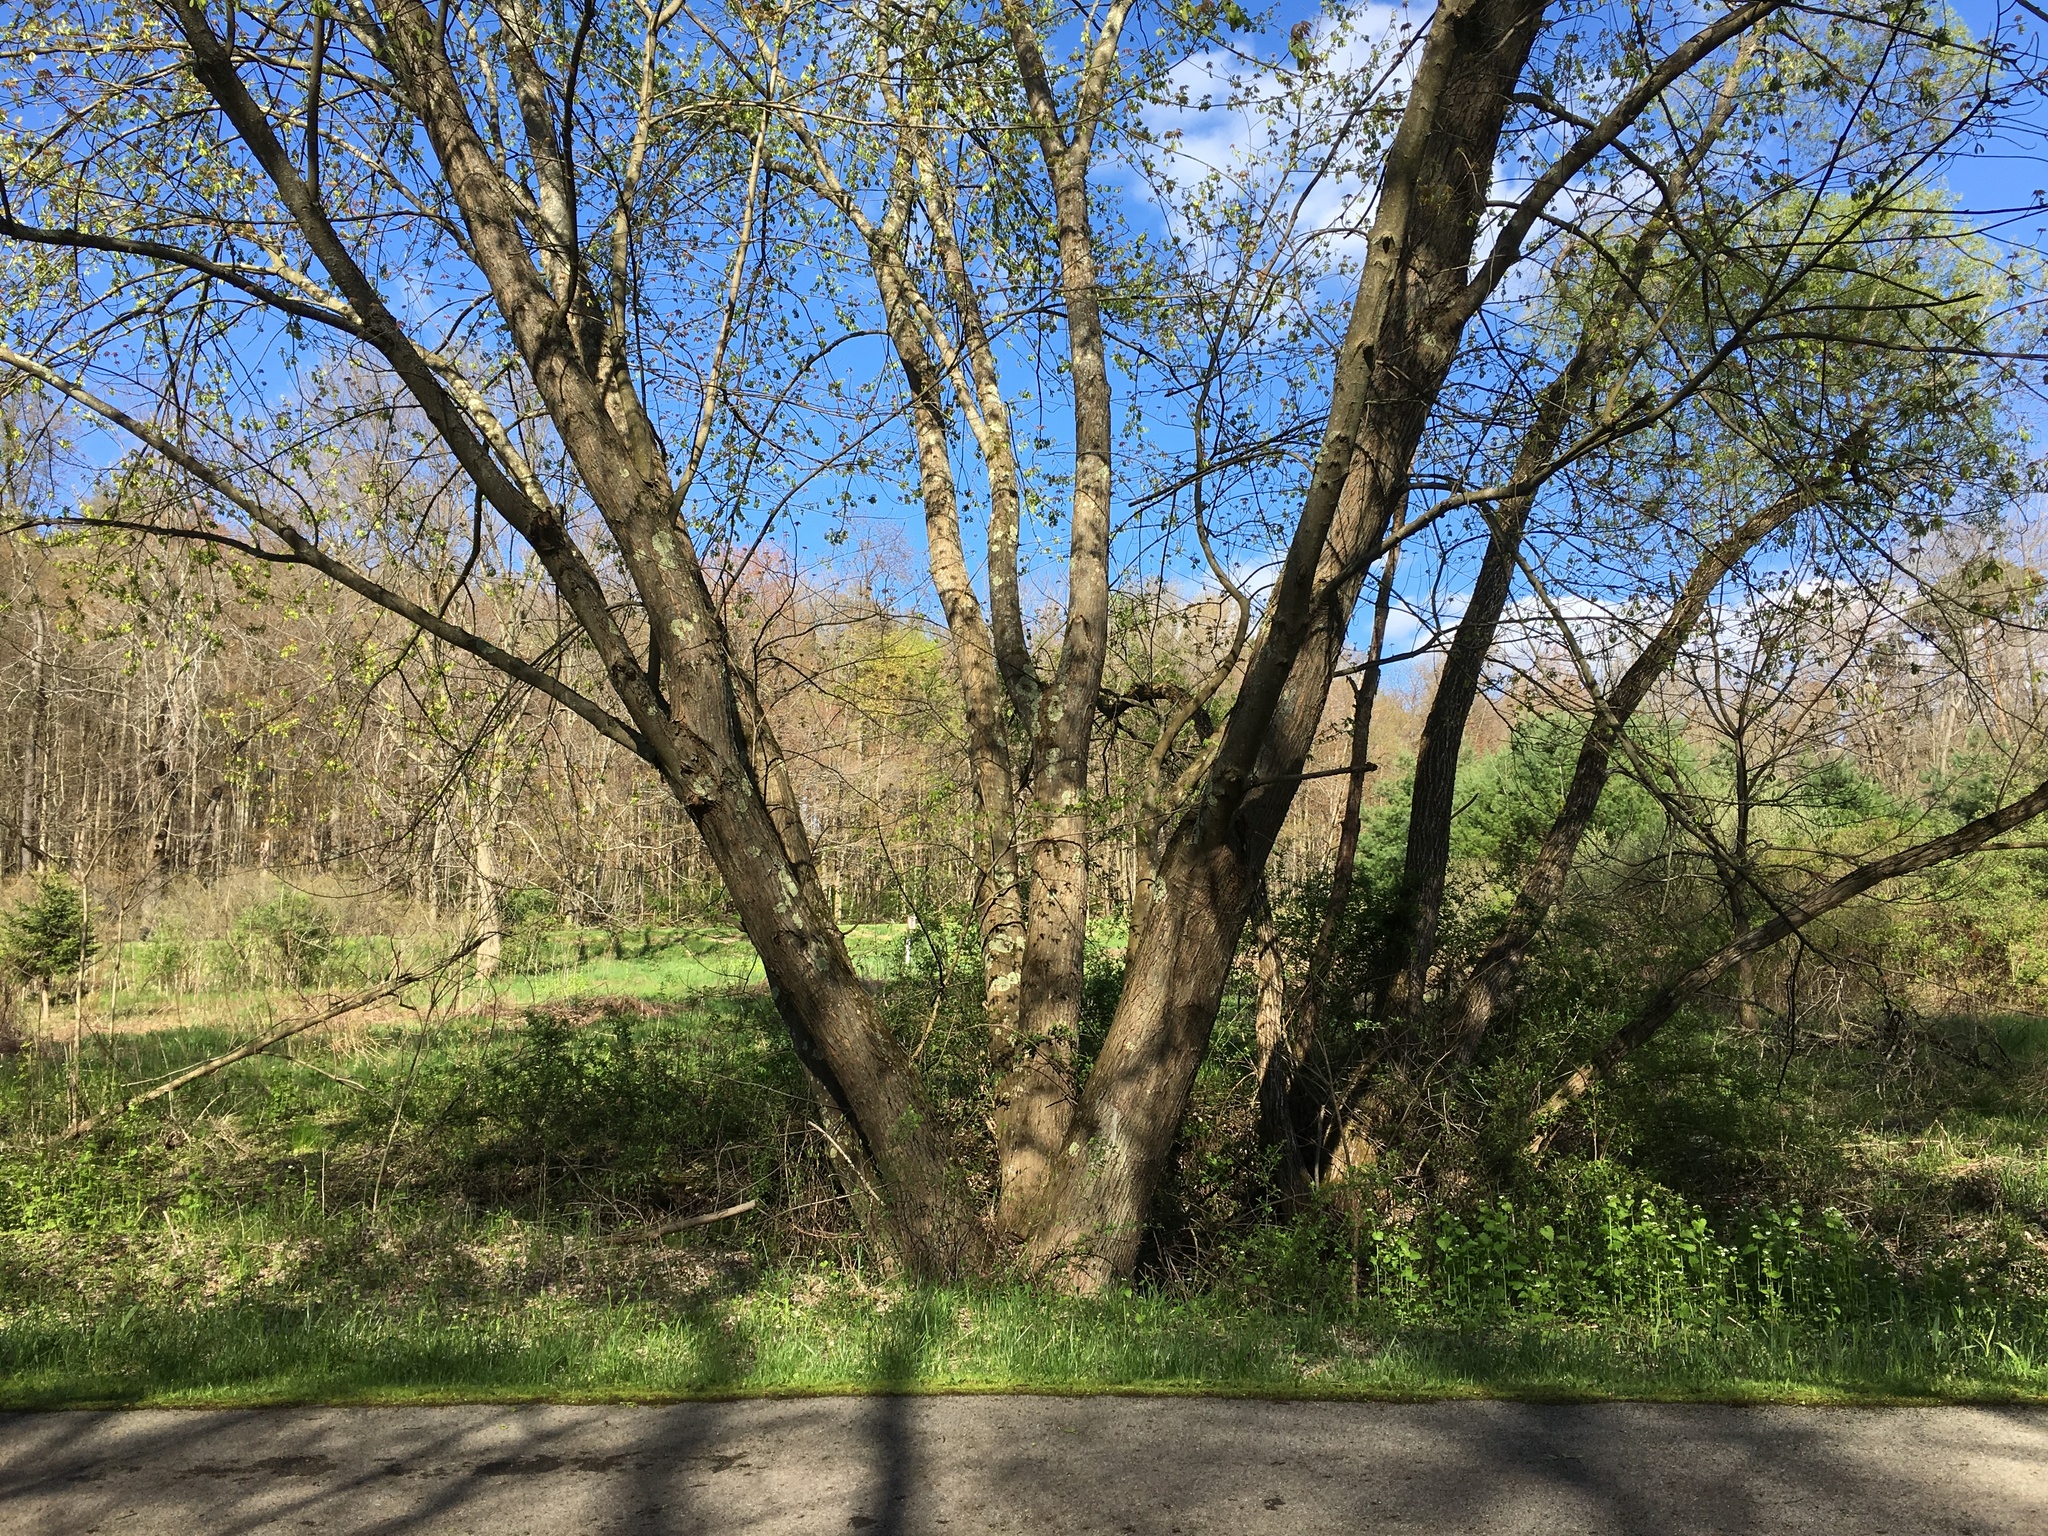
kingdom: Plantae
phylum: Tracheophyta
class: Magnoliopsida
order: Sapindales
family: Sapindaceae
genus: Acer
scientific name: Acer saccharinum
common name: Silver maple
